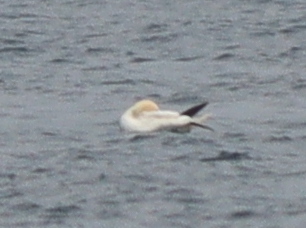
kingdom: Animalia
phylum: Chordata
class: Aves
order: Suliformes
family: Sulidae
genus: Morus
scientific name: Morus bassanus
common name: Northern gannet
